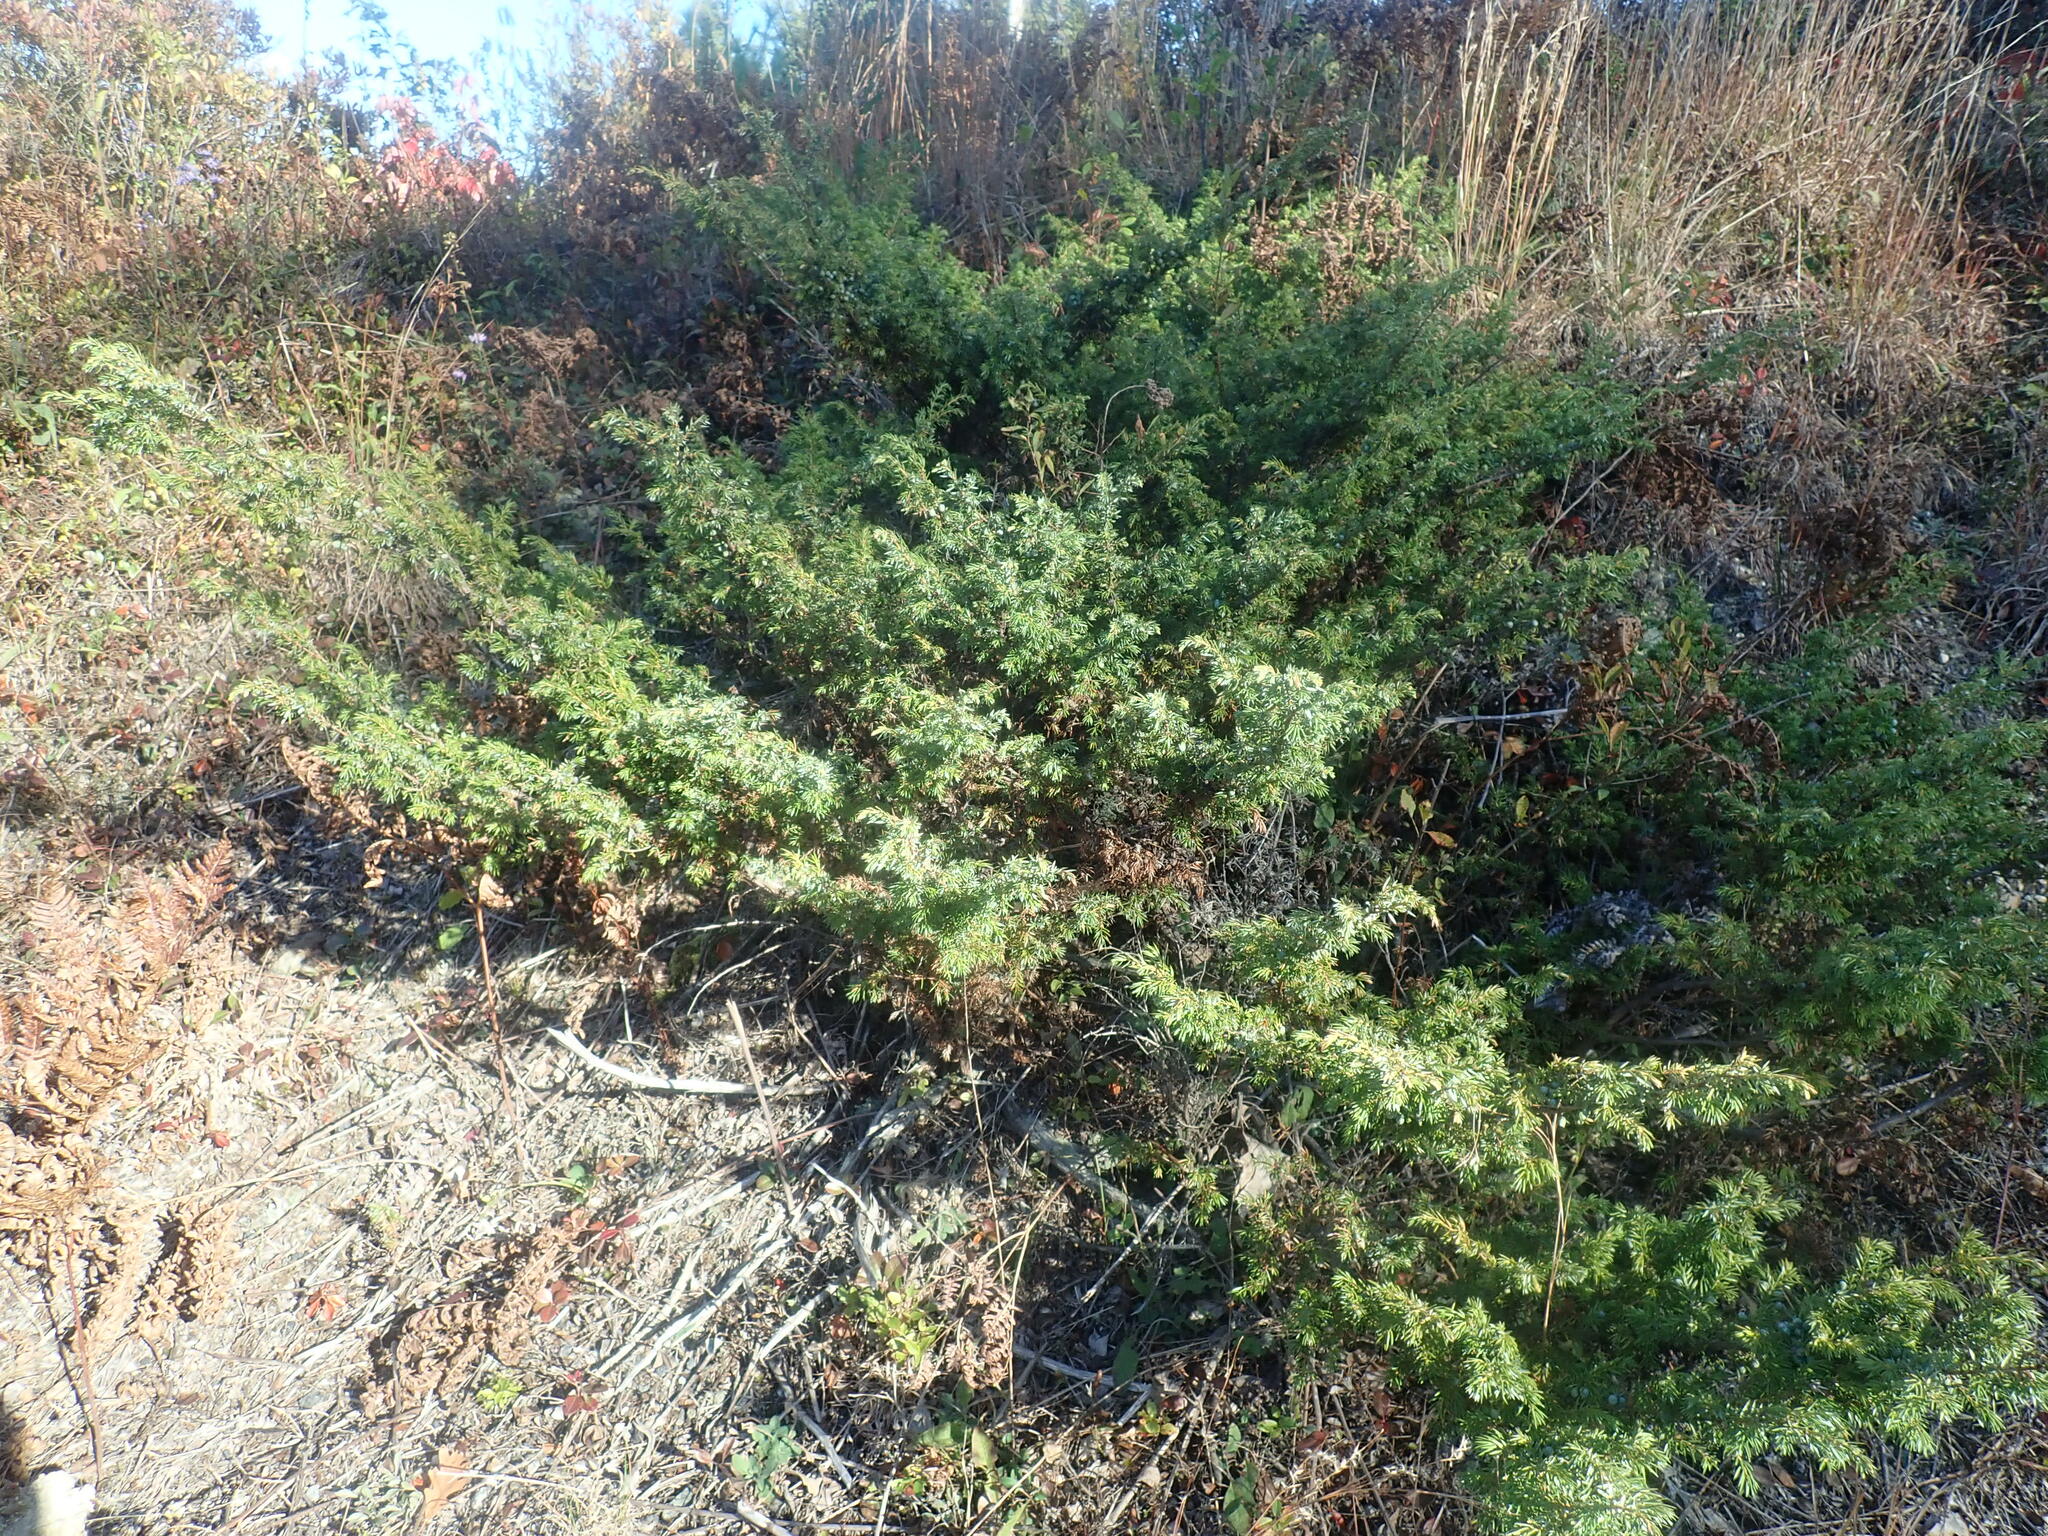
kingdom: Plantae
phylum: Tracheophyta
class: Pinopsida
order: Pinales
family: Cupressaceae
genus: Juniperus
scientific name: Juniperus communis
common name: Common juniper
